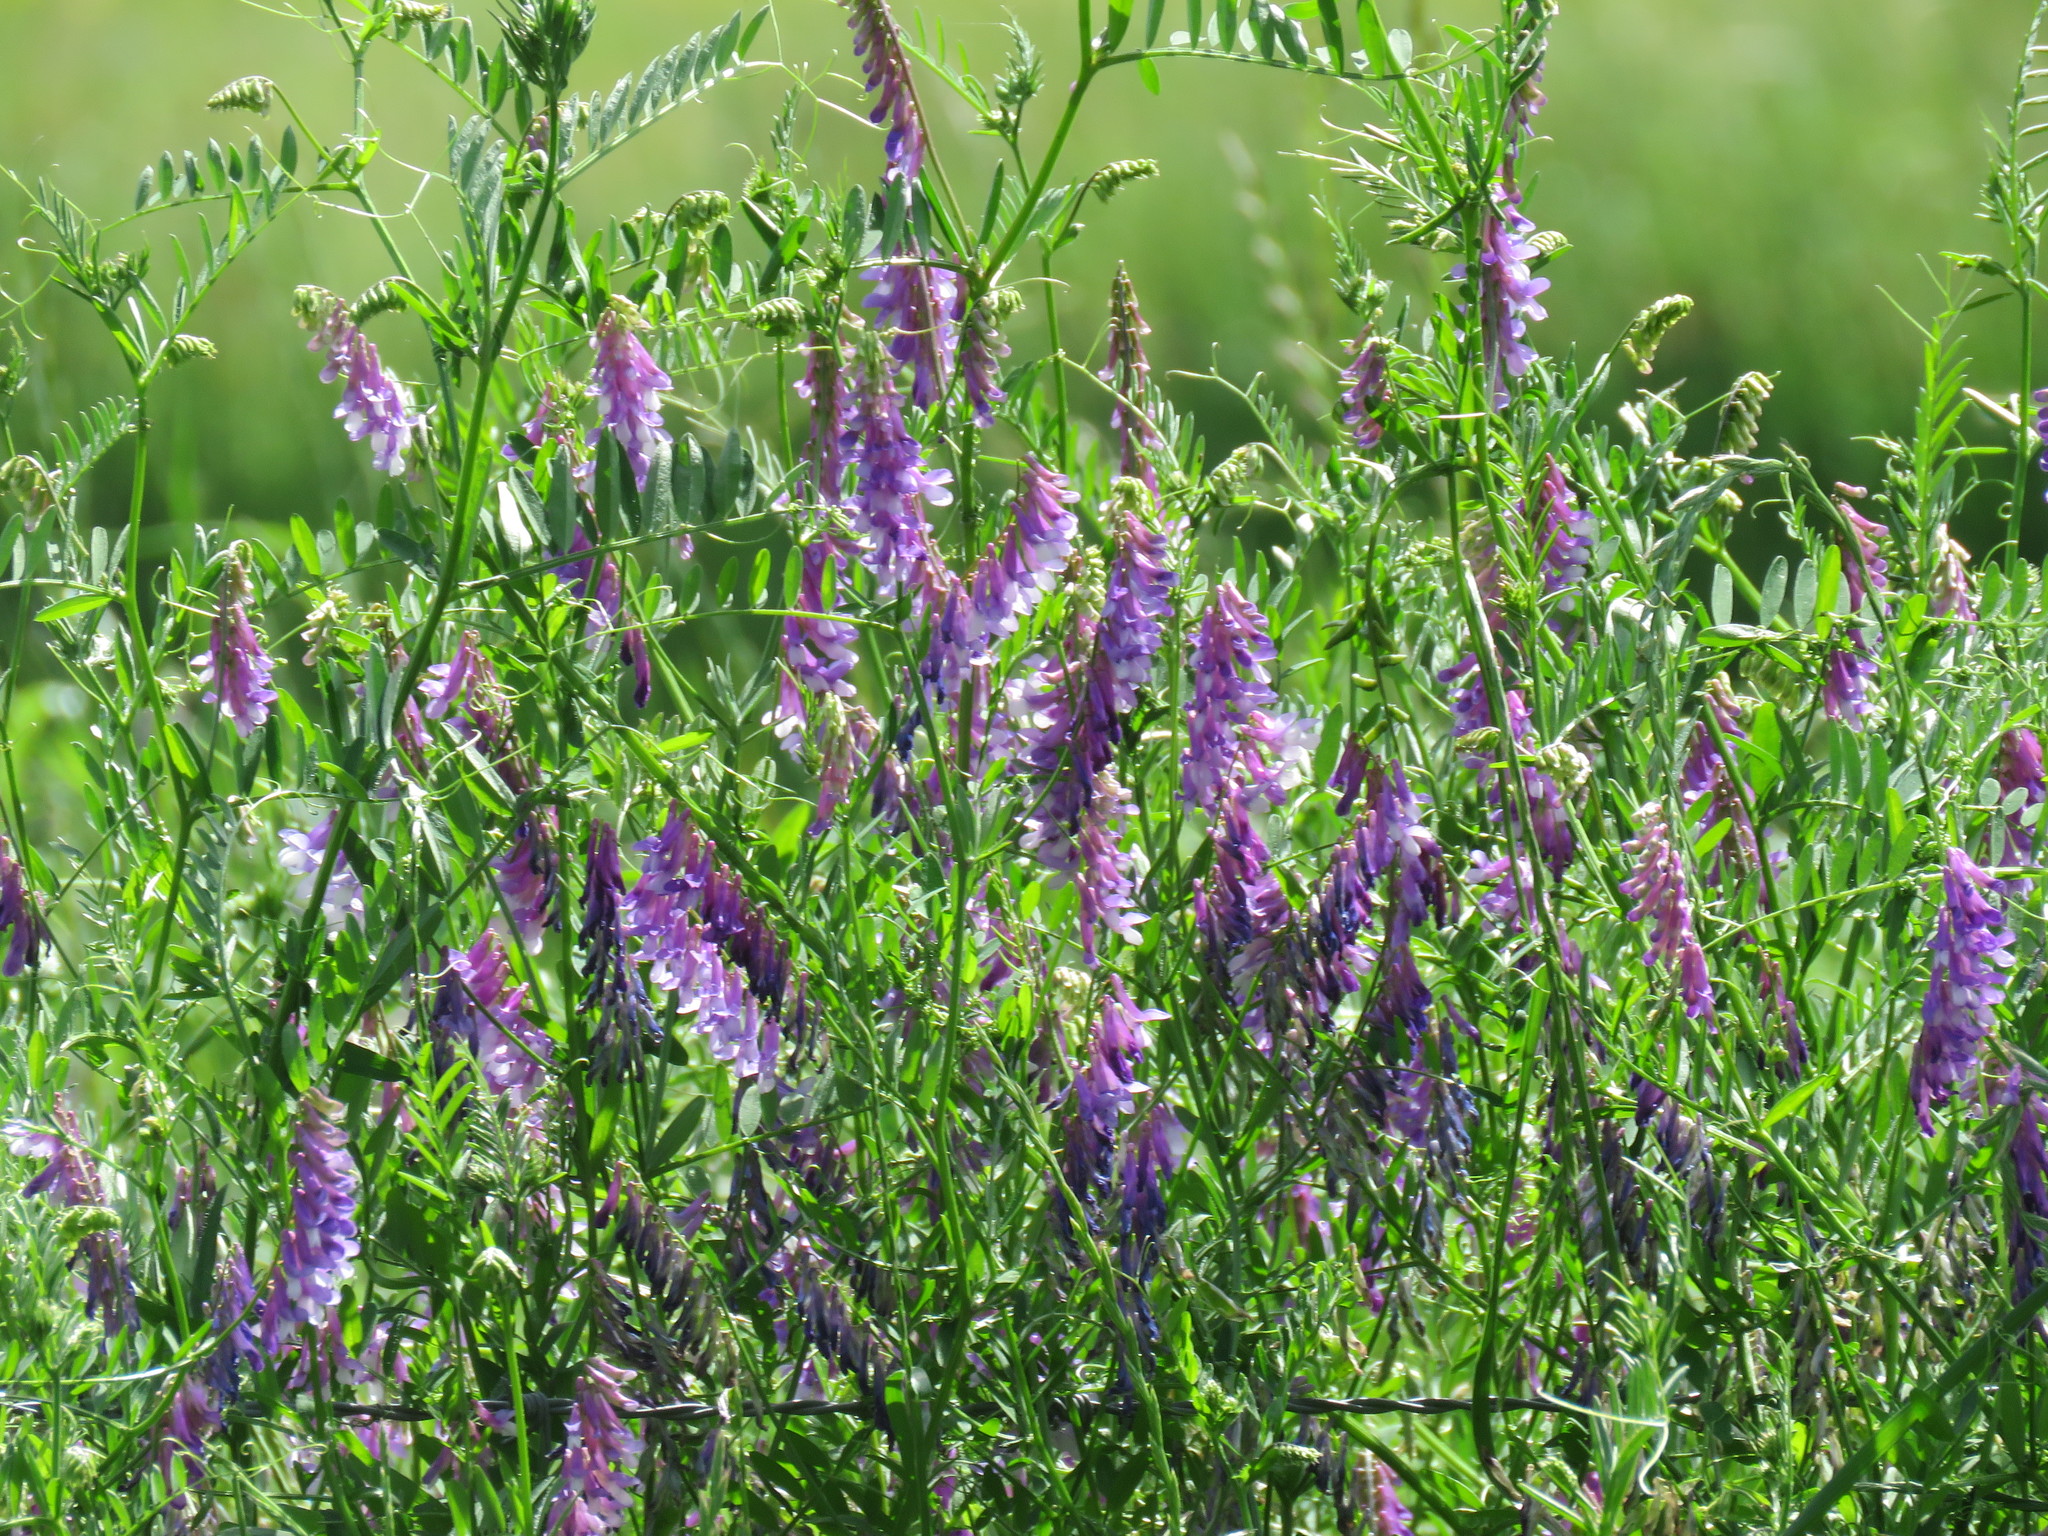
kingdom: Plantae
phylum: Tracheophyta
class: Magnoliopsida
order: Fabales
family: Fabaceae
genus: Vicia
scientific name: Vicia villosa
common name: Fodder vetch
